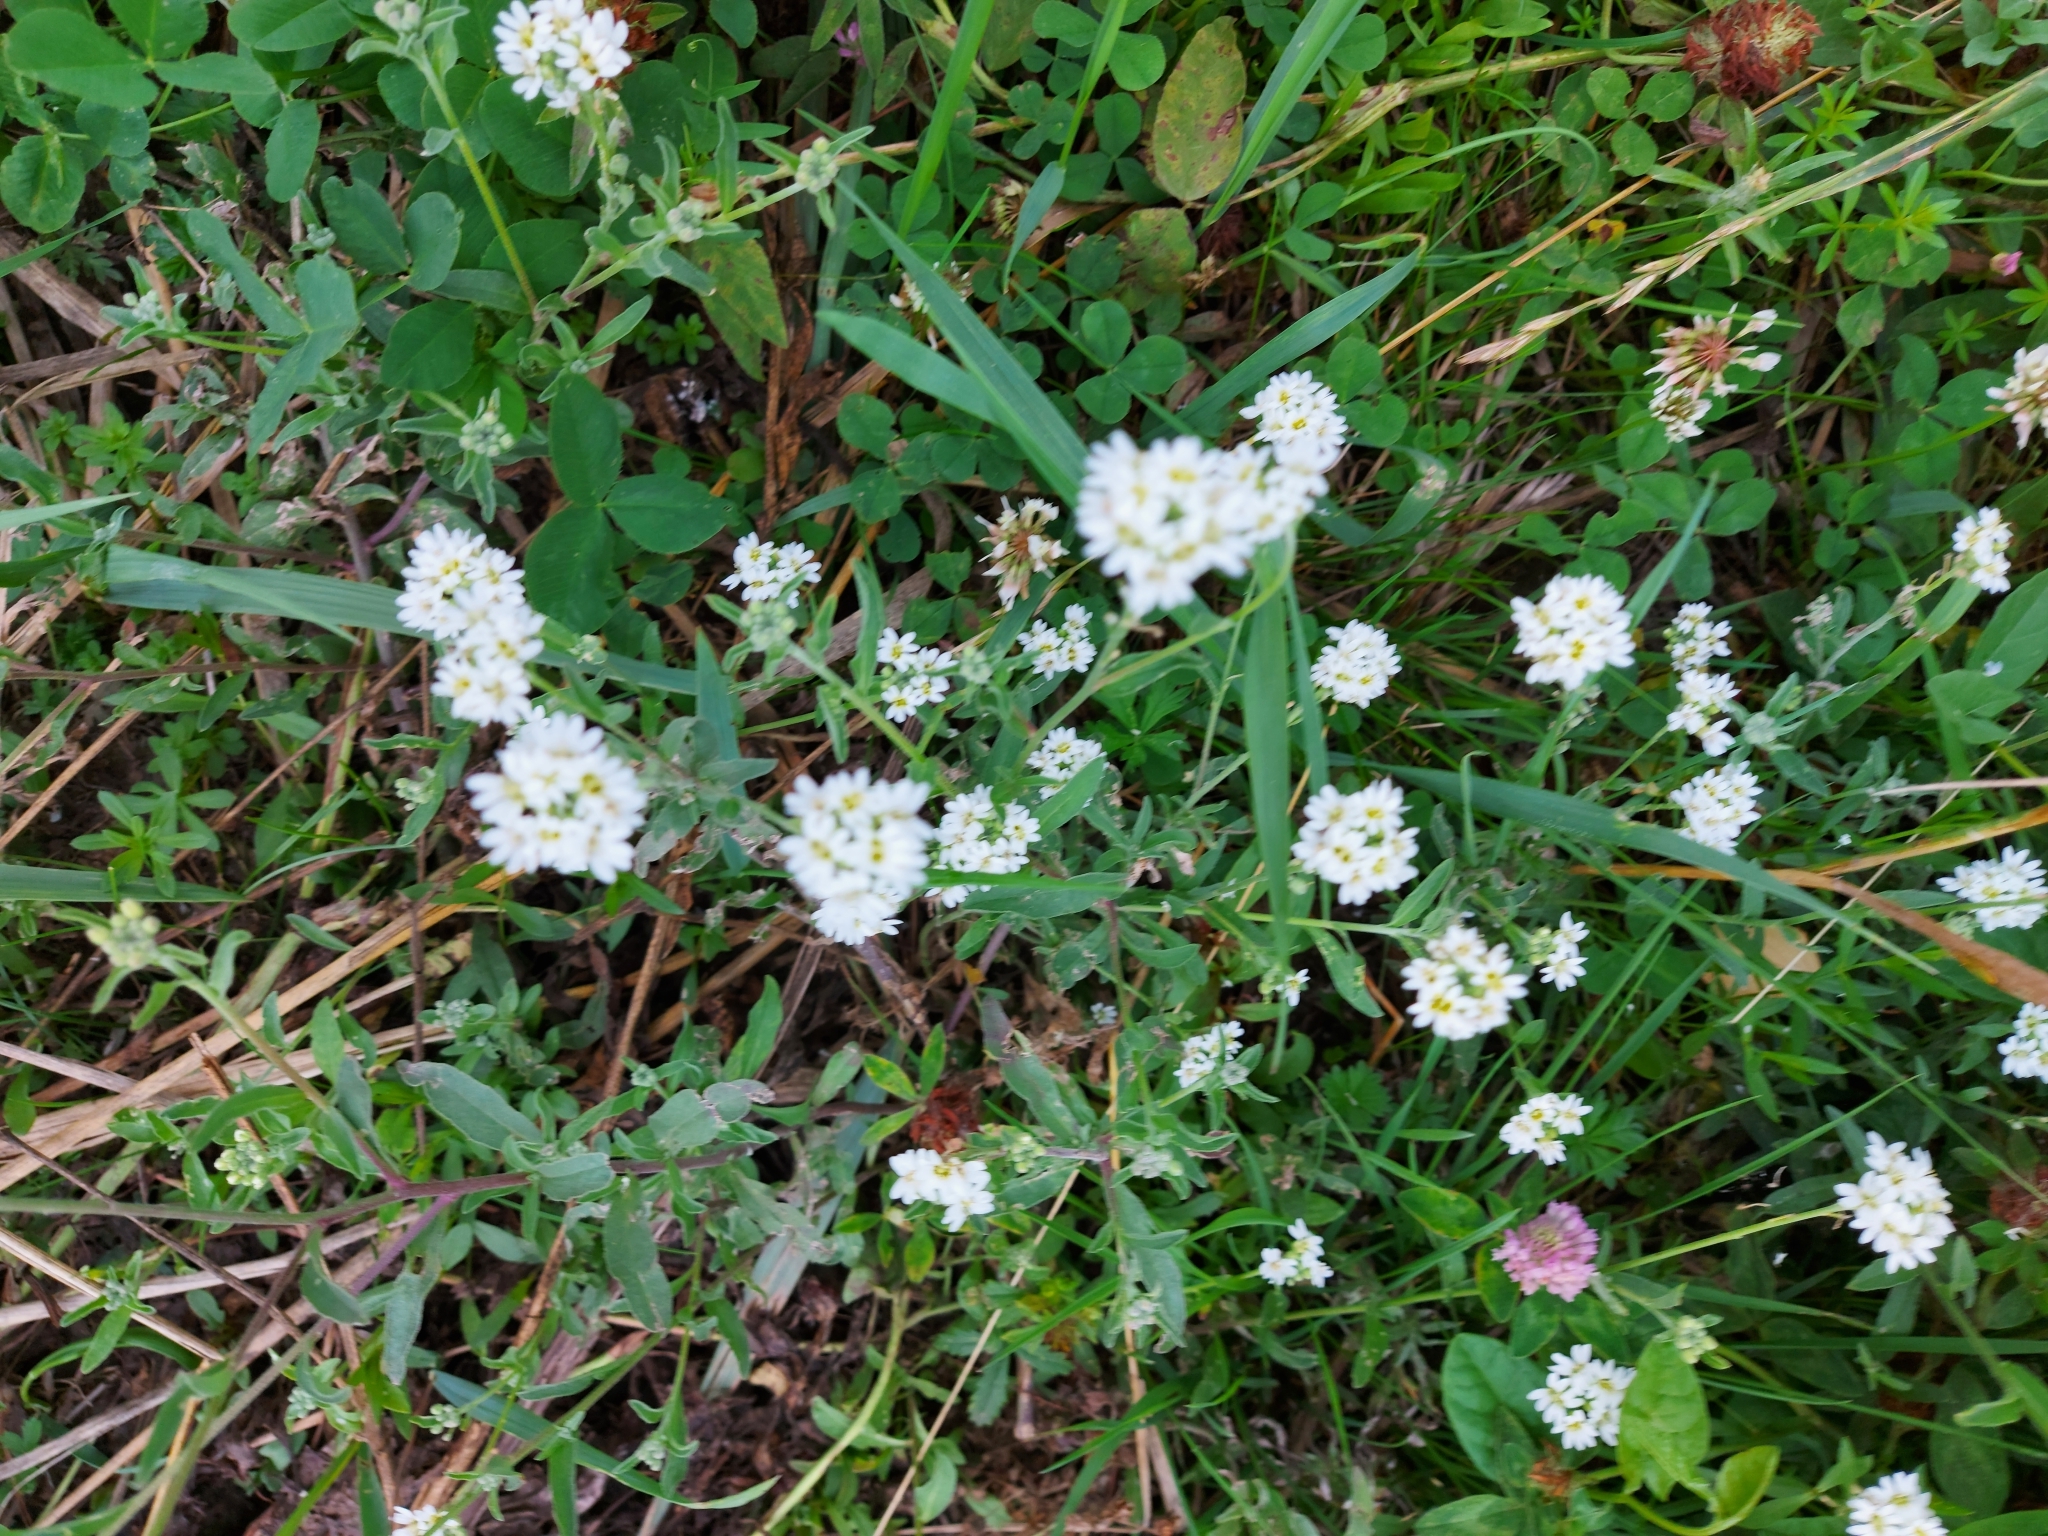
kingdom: Plantae
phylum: Tracheophyta
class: Magnoliopsida
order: Brassicales
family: Brassicaceae
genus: Berteroa
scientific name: Berteroa incana
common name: Hoary alison
